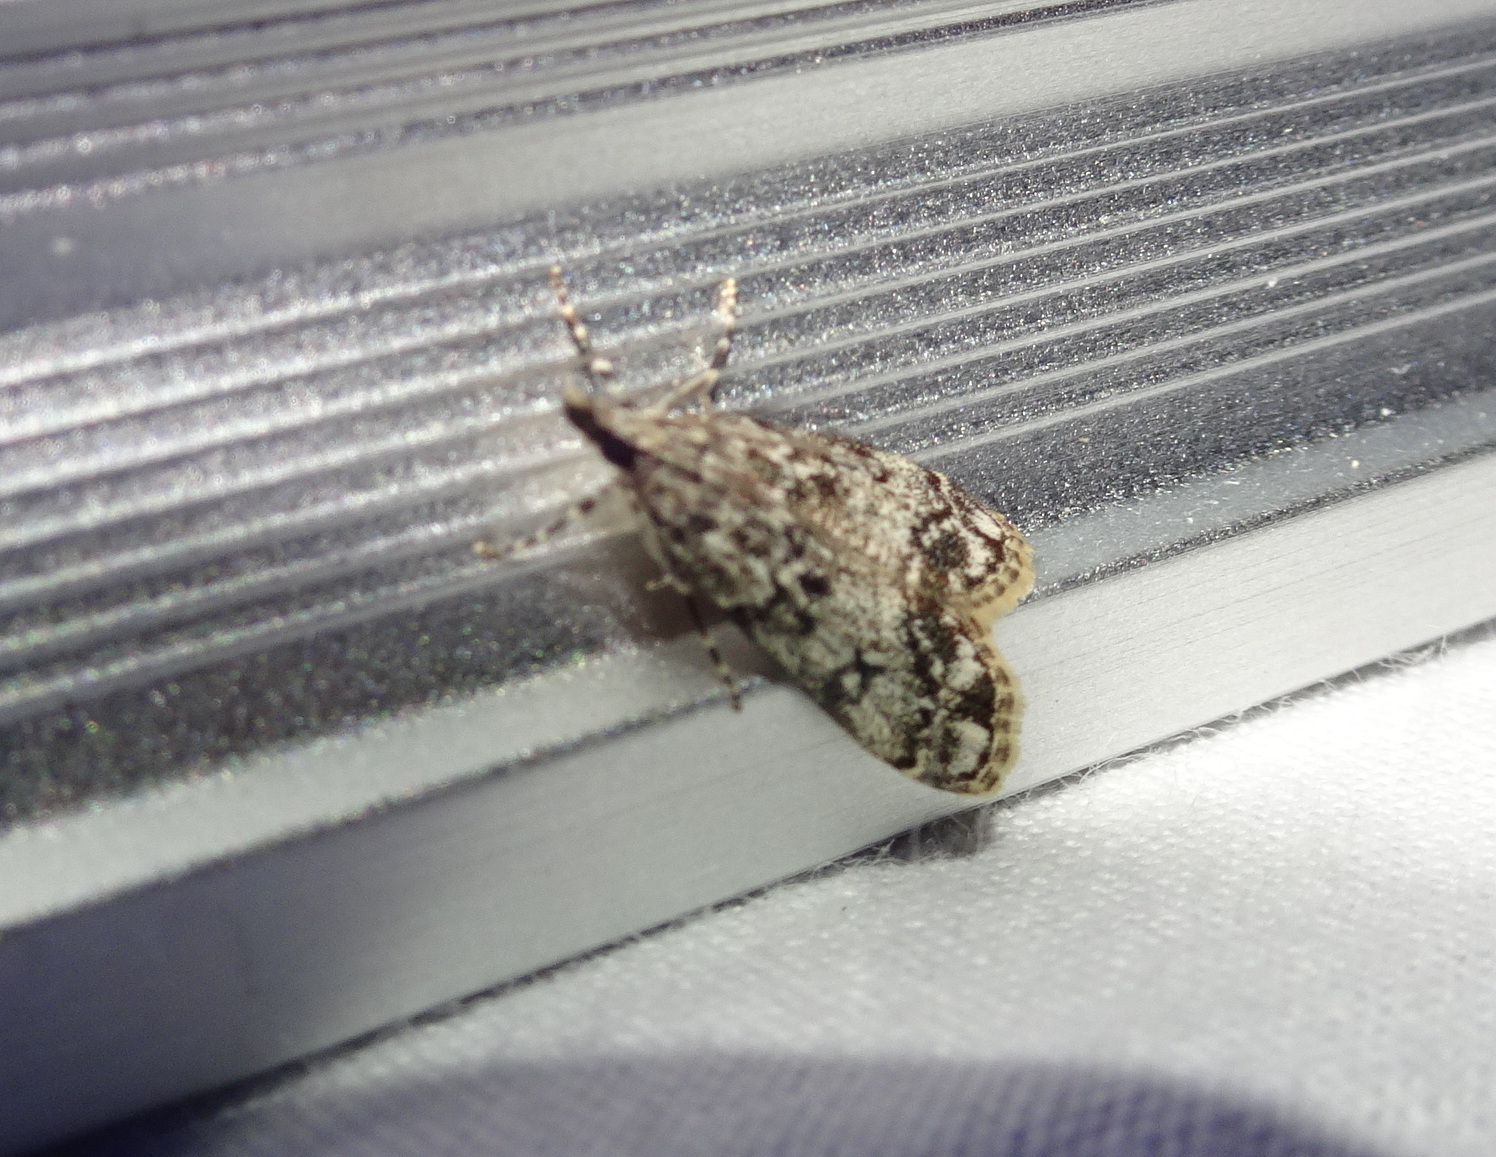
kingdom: Animalia
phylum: Arthropoda
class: Insecta
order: Lepidoptera
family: Crambidae
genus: Eudonia
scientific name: Eudonia lacustrata
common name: Little grey
